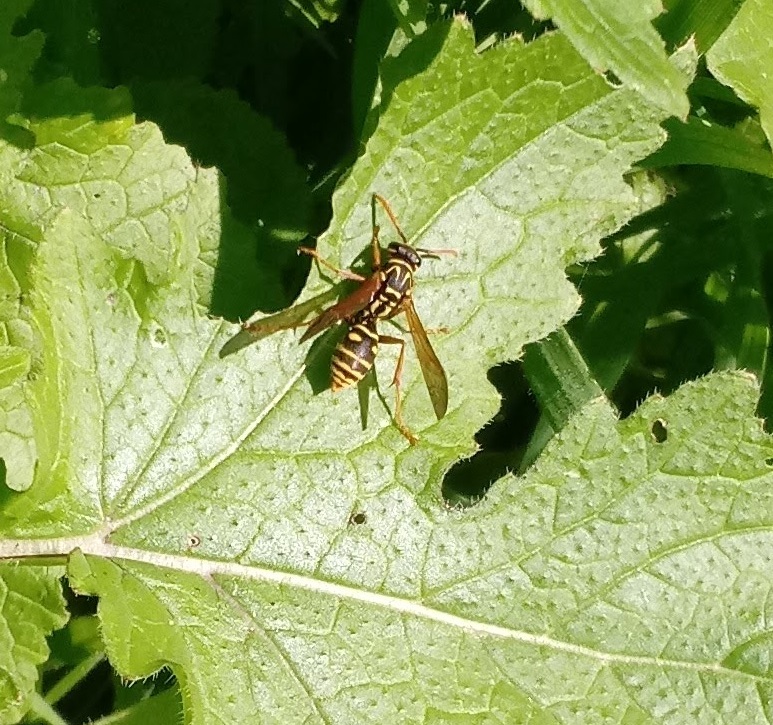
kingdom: Animalia
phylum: Arthropoda
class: Insecta
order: Hymenoptera
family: Eumenidae
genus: Polistes
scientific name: Polistes
